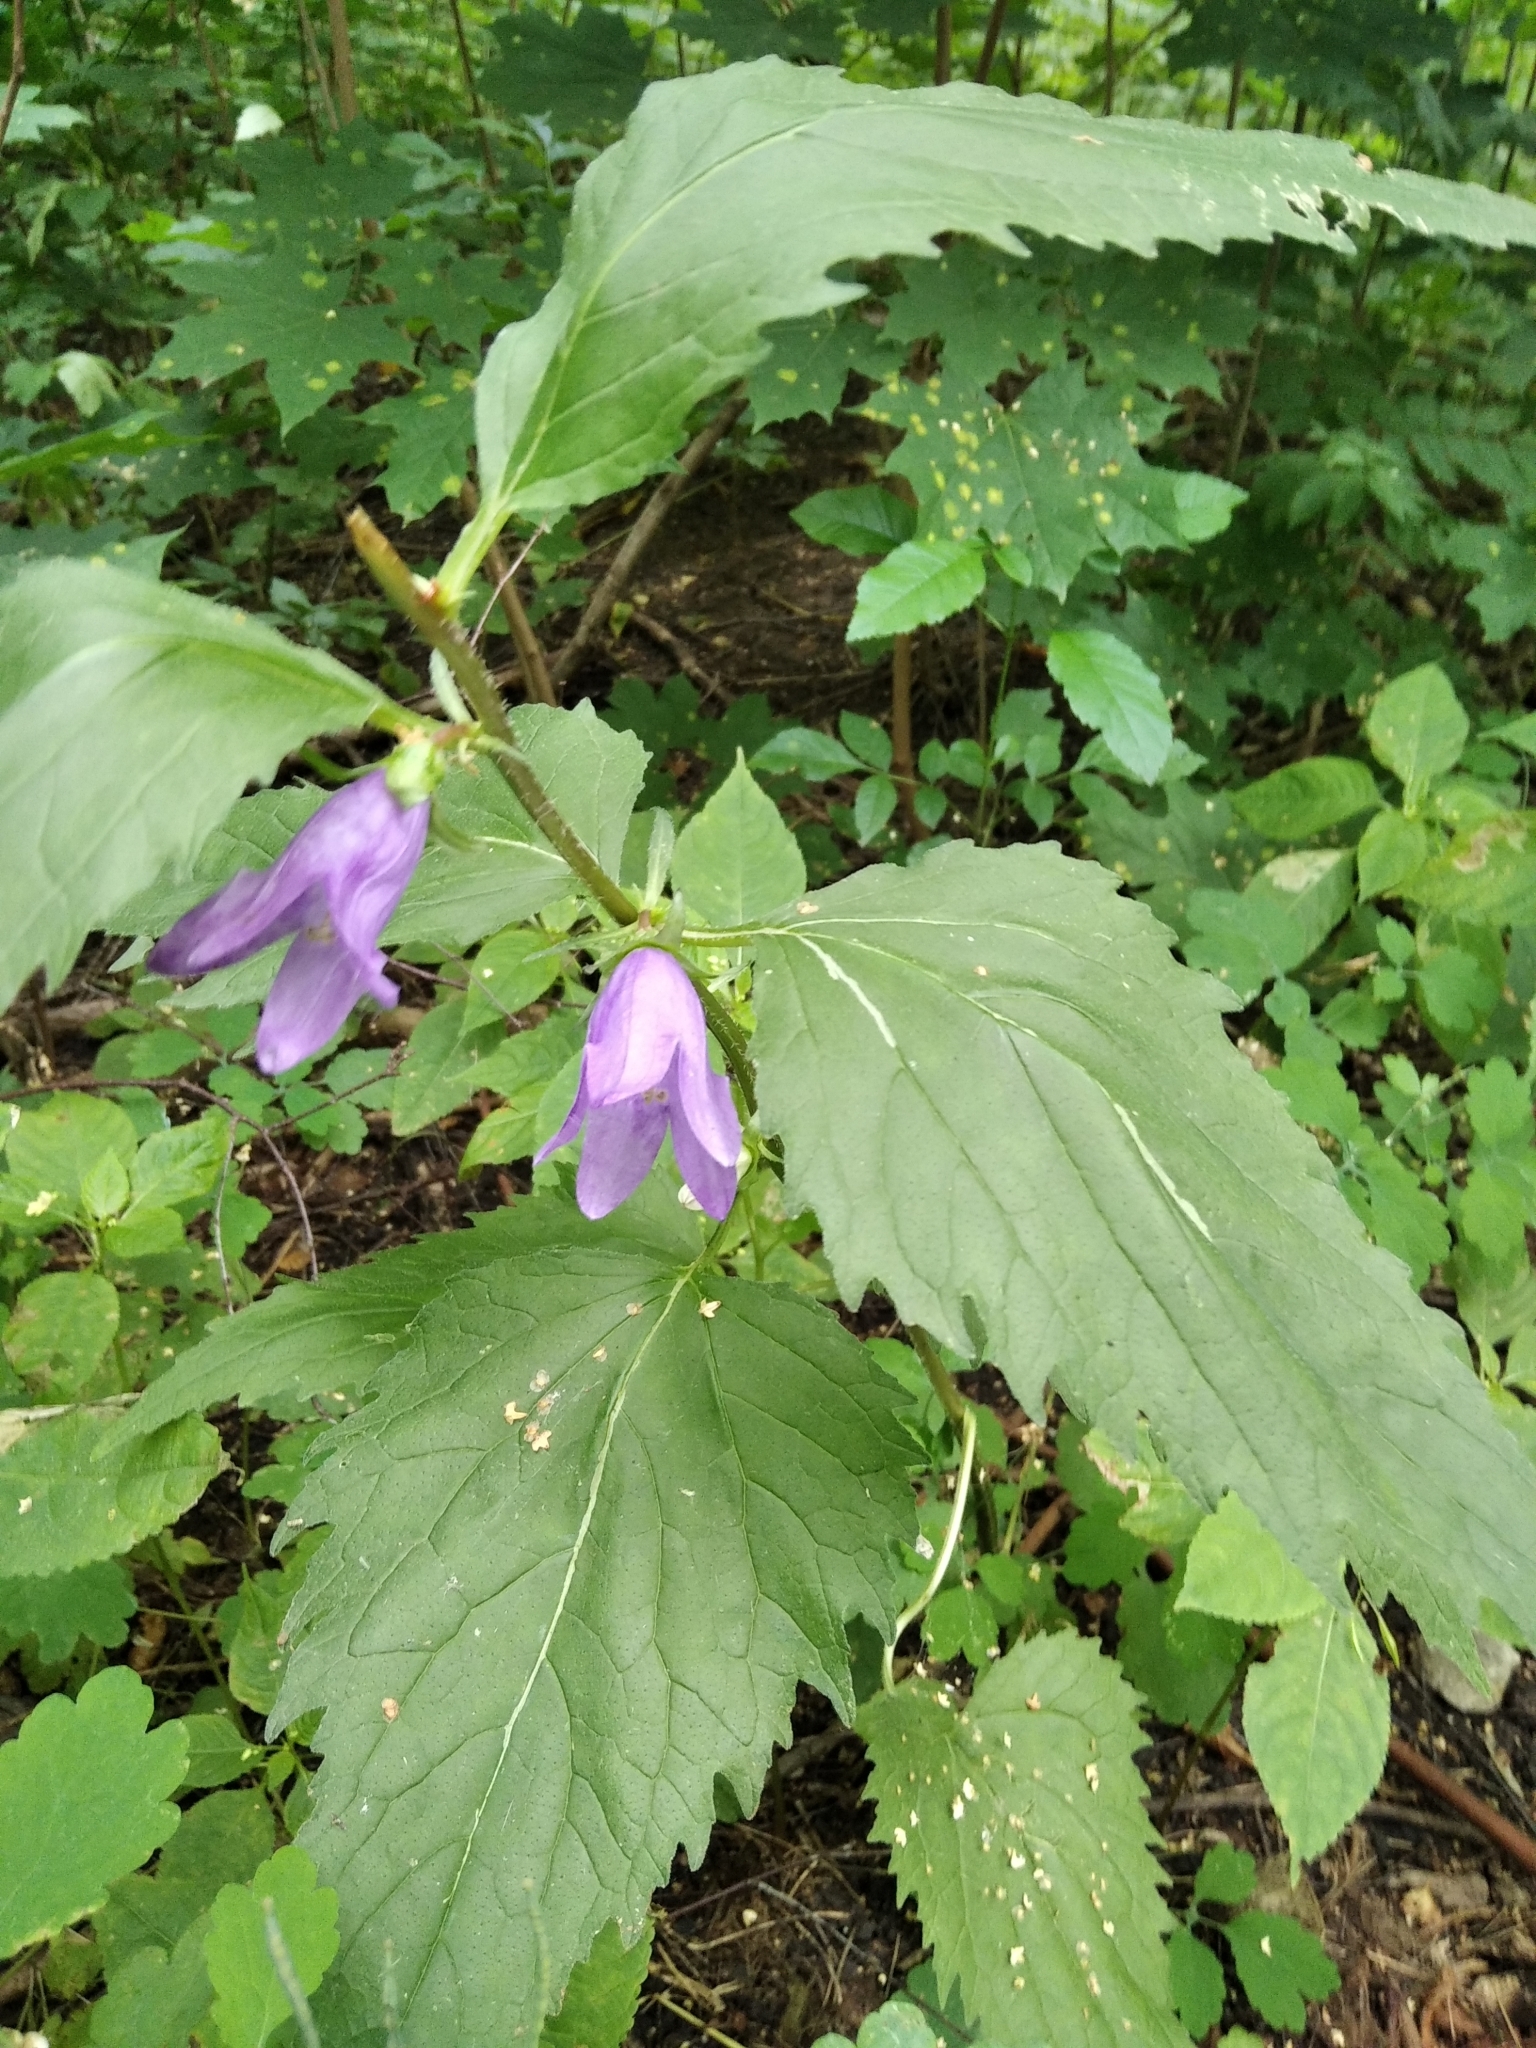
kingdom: Plantae
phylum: Tracheophyta
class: Magnoliopsida
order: Asterales
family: Campanulaceae
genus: Campanula
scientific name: Campanula trachelium
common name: Nettle-leaved bellflower
